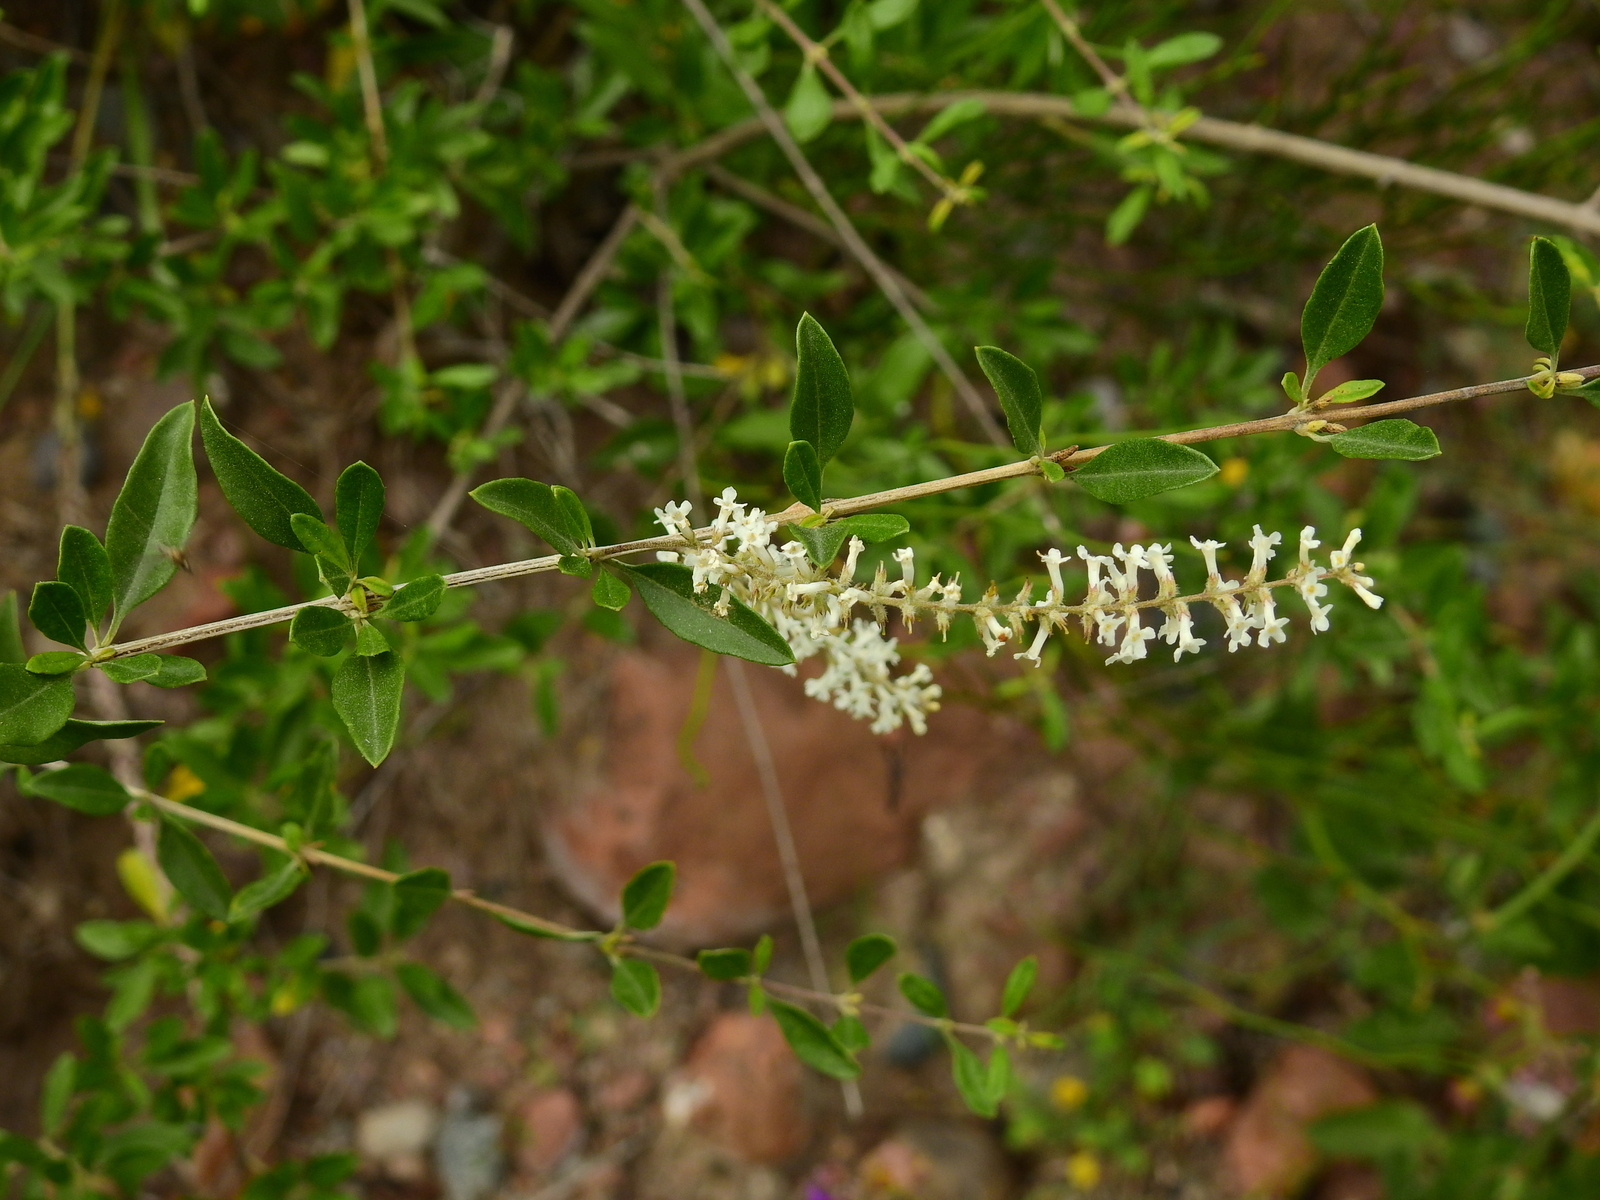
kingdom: Plantae
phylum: Tracheophyta
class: Magnoliopsida
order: Lamiales
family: Verbenaceae
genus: Aloysia
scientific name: Aloysia gratissima
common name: Common bee-brush
